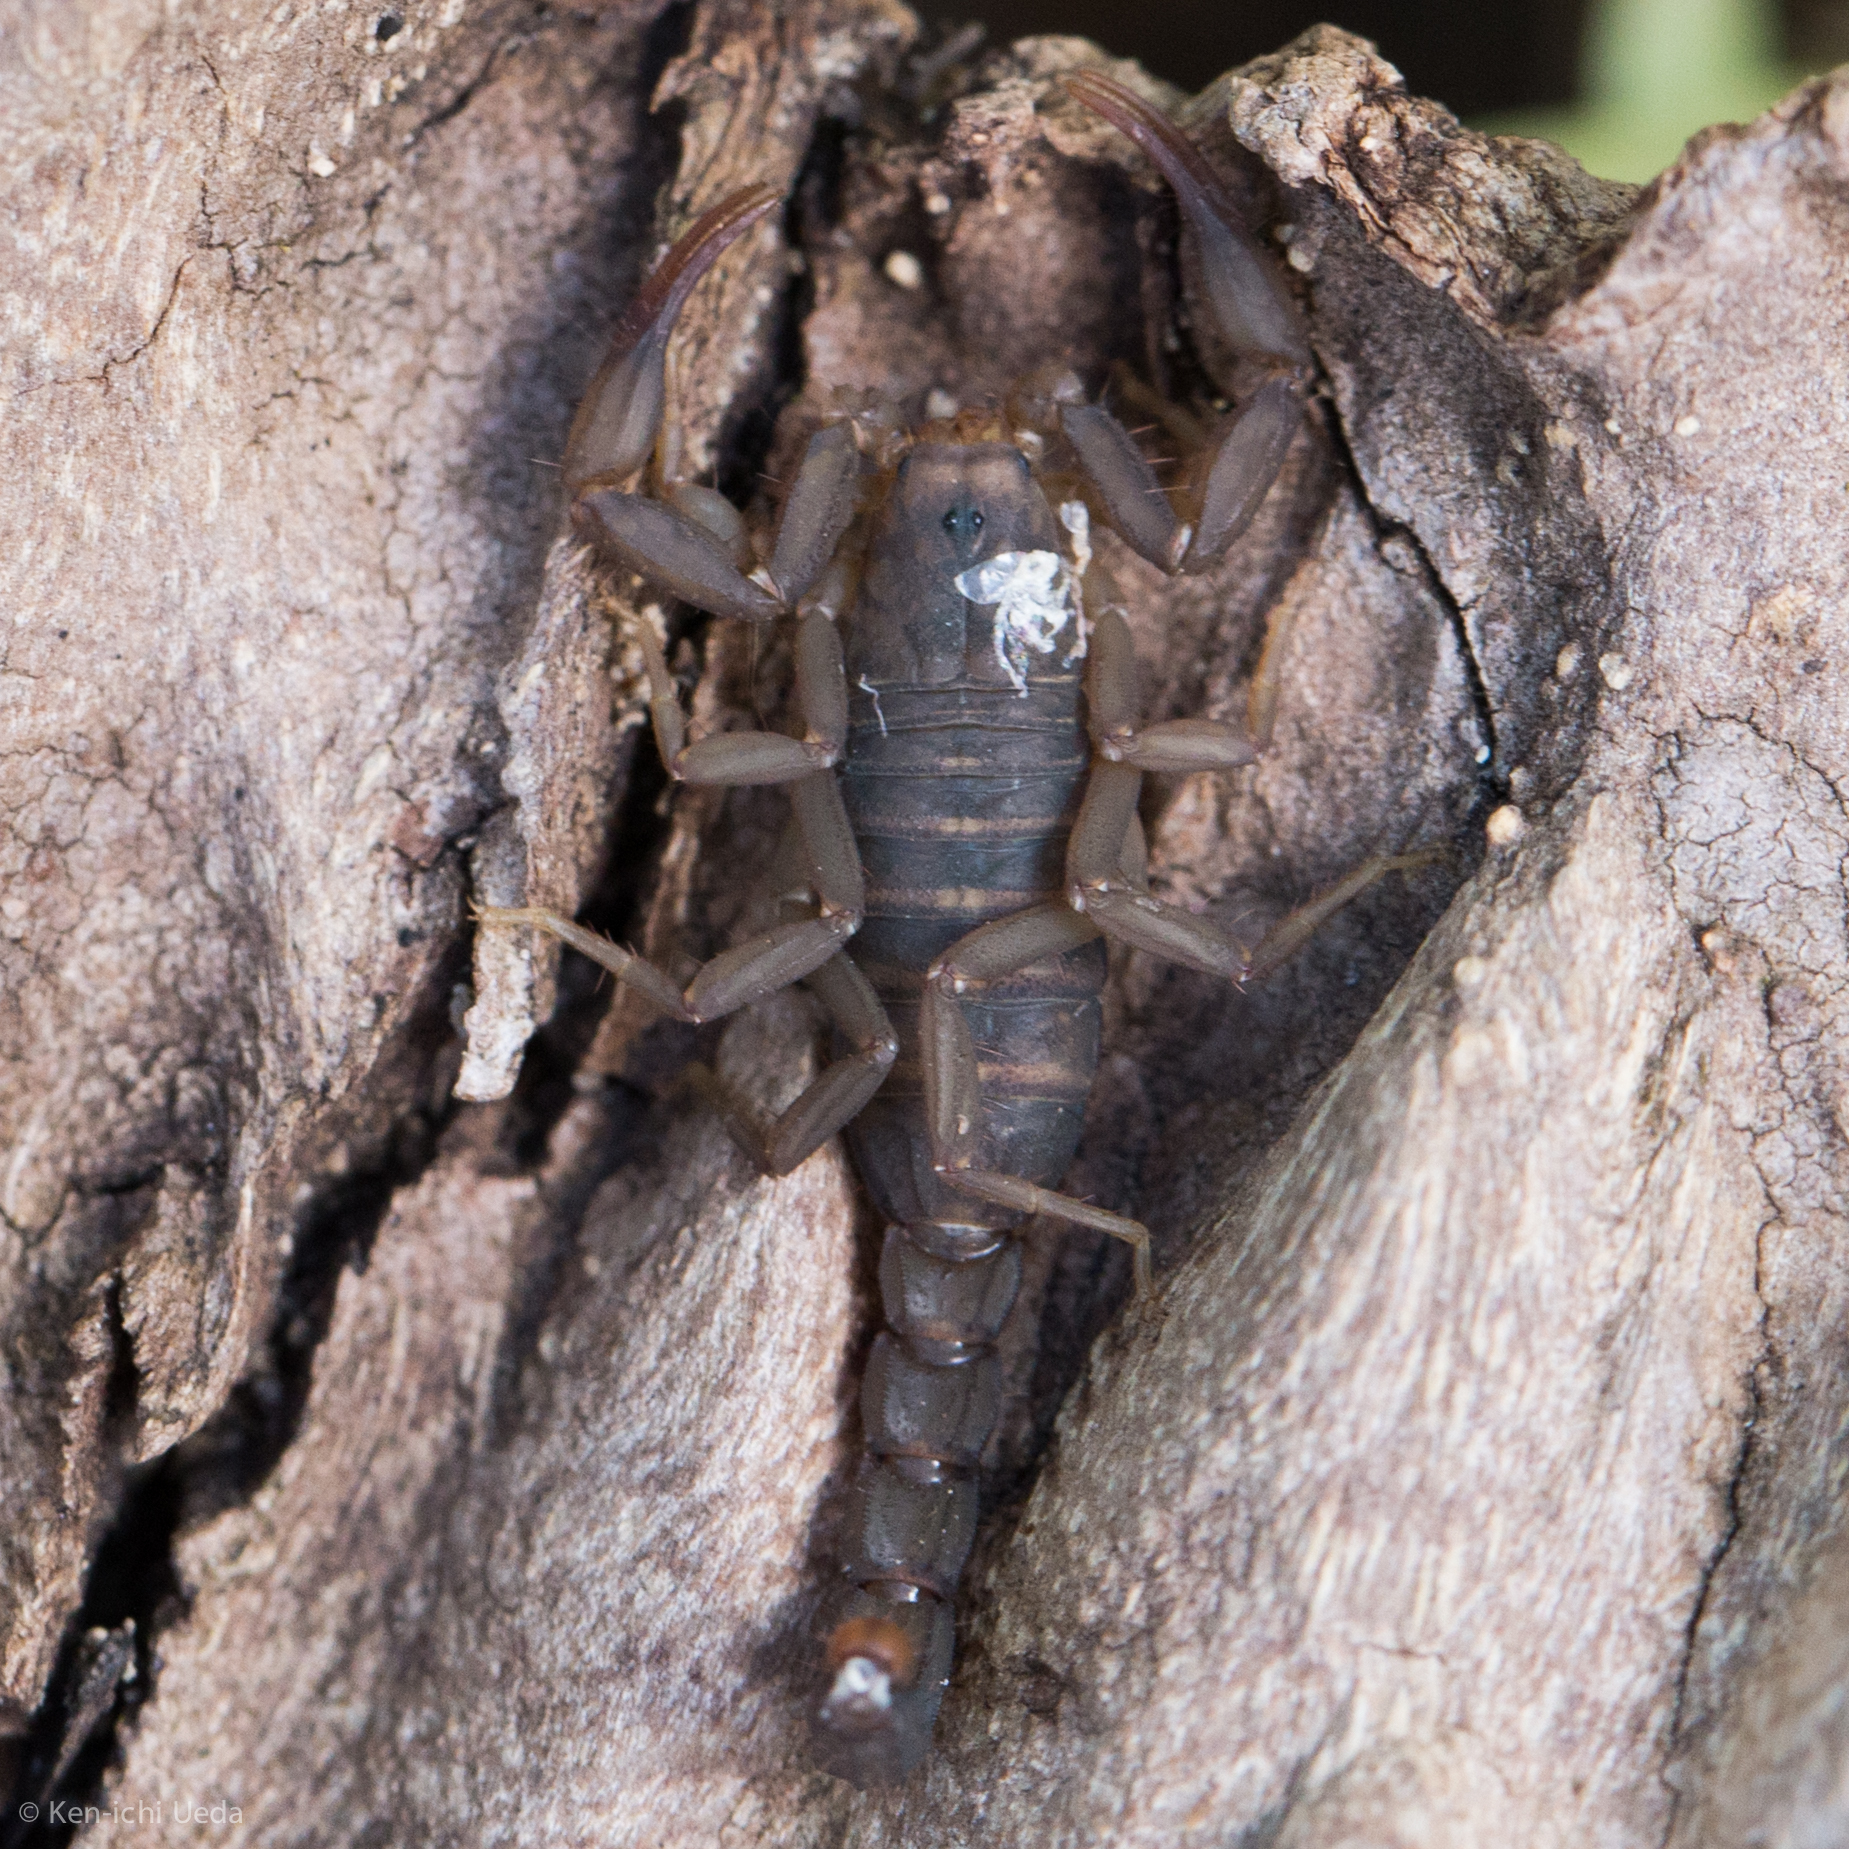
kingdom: Animalia
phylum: Arthropoda
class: Arachnida
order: Scorpiones
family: Vaejovidae
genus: Vaejovis
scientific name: Vaejovis grahami
